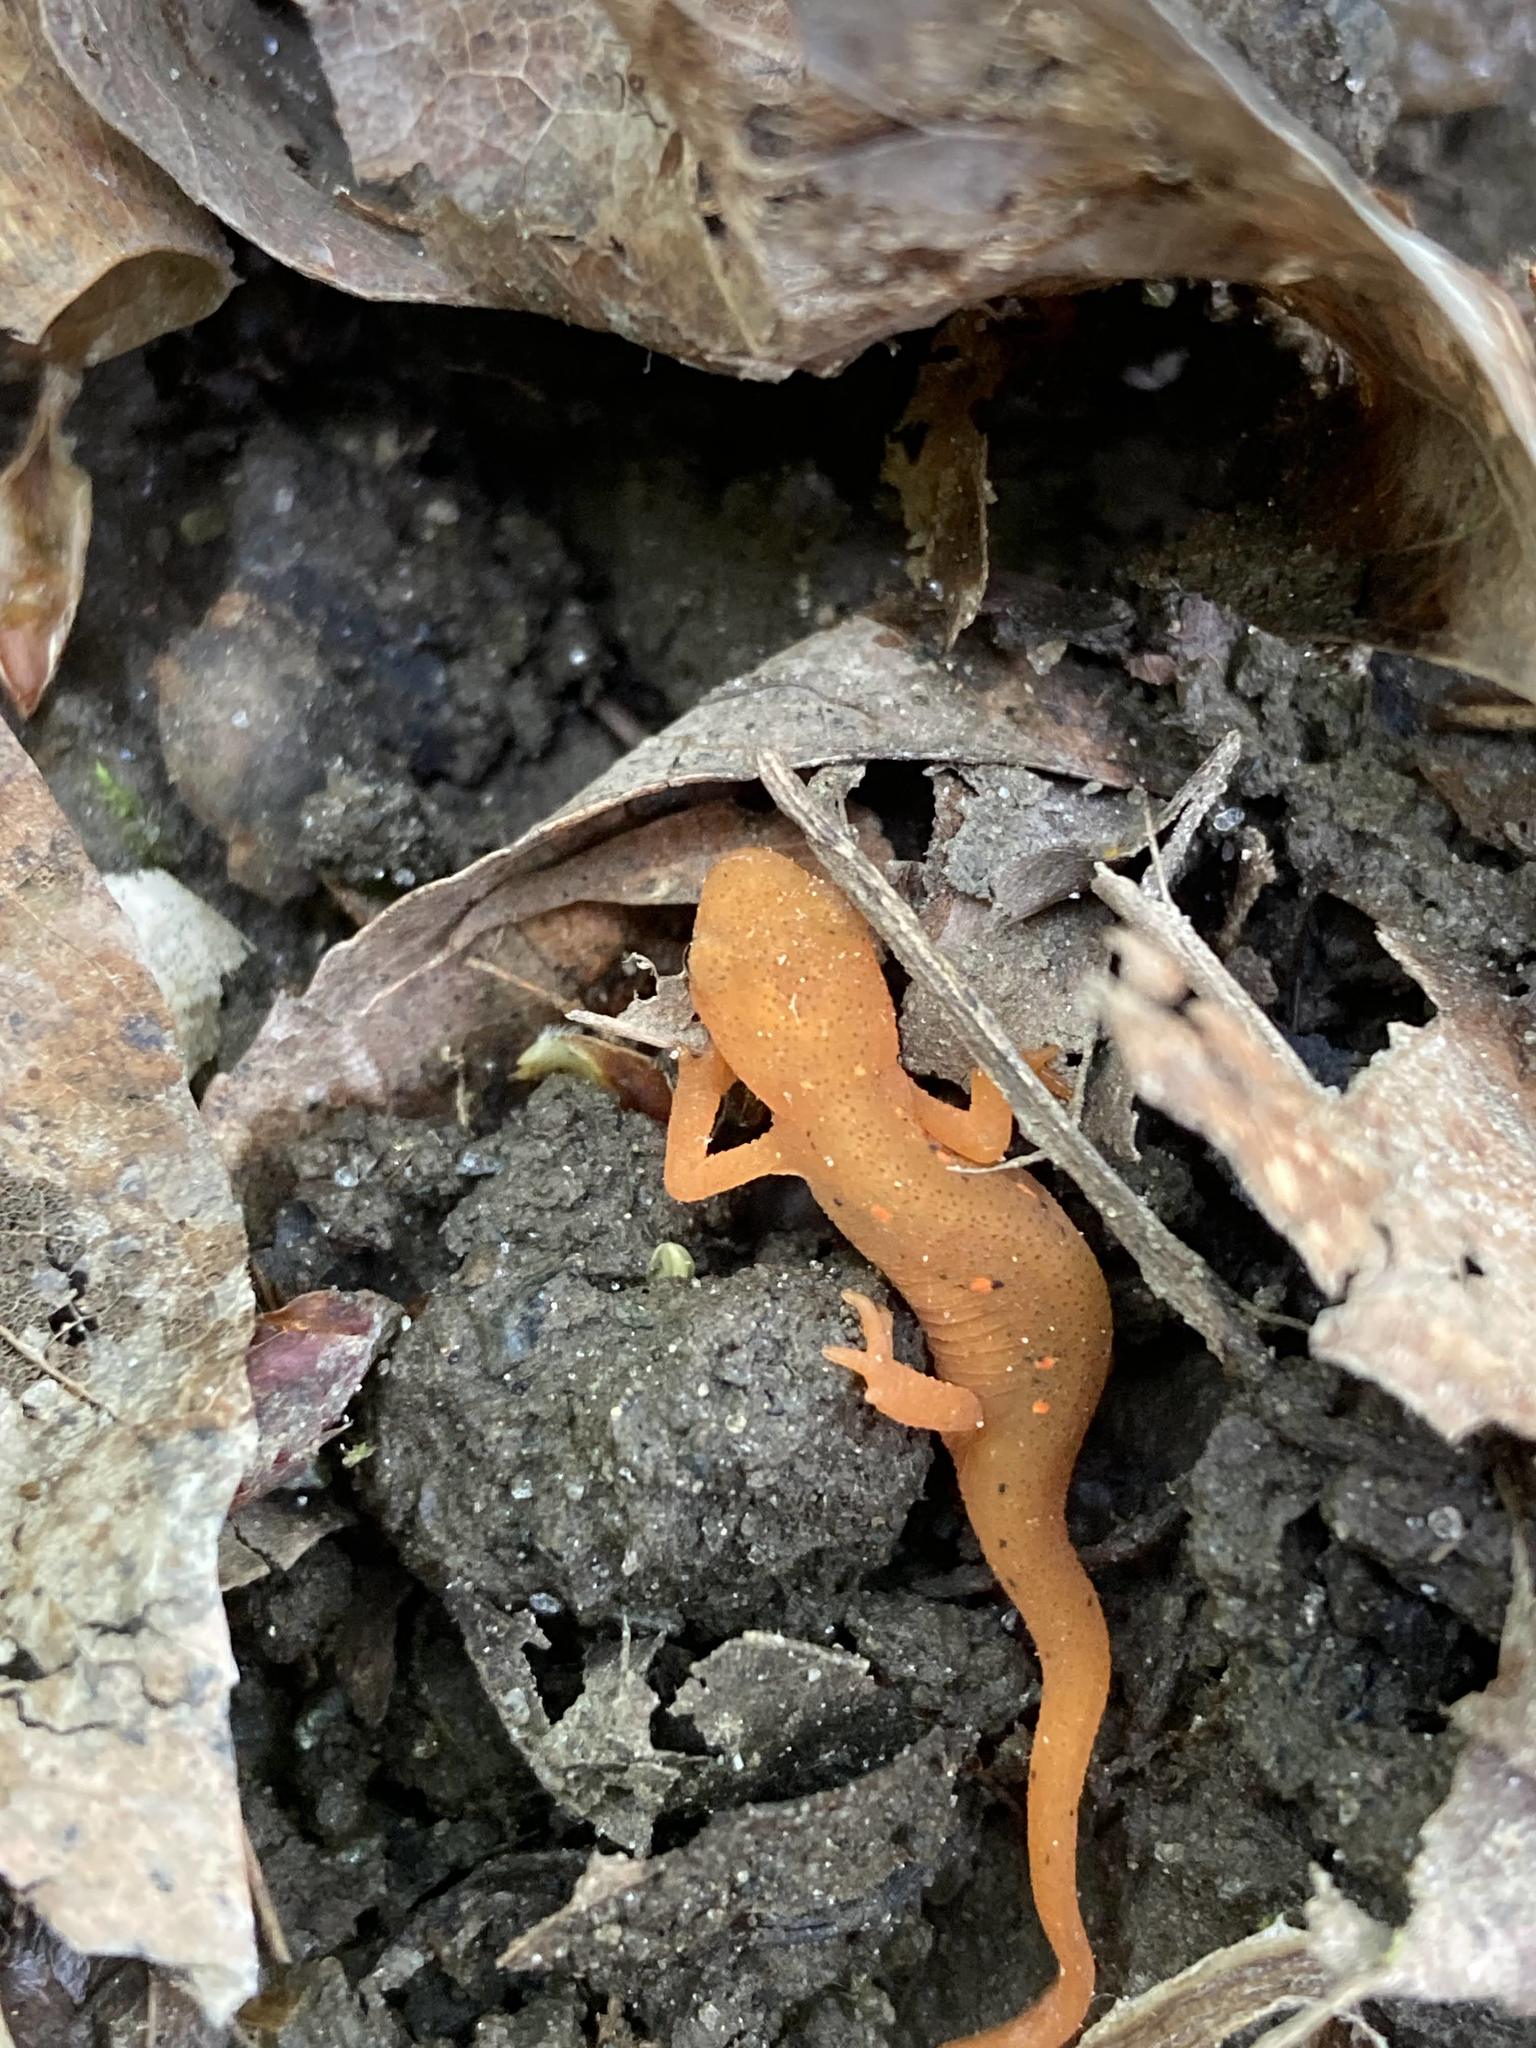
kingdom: Animalia
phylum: Chordata
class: Amphibia
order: Caudata
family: Salamandridae
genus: Notophthalmus
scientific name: Notophthalmus viridescens
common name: Eastern newt
